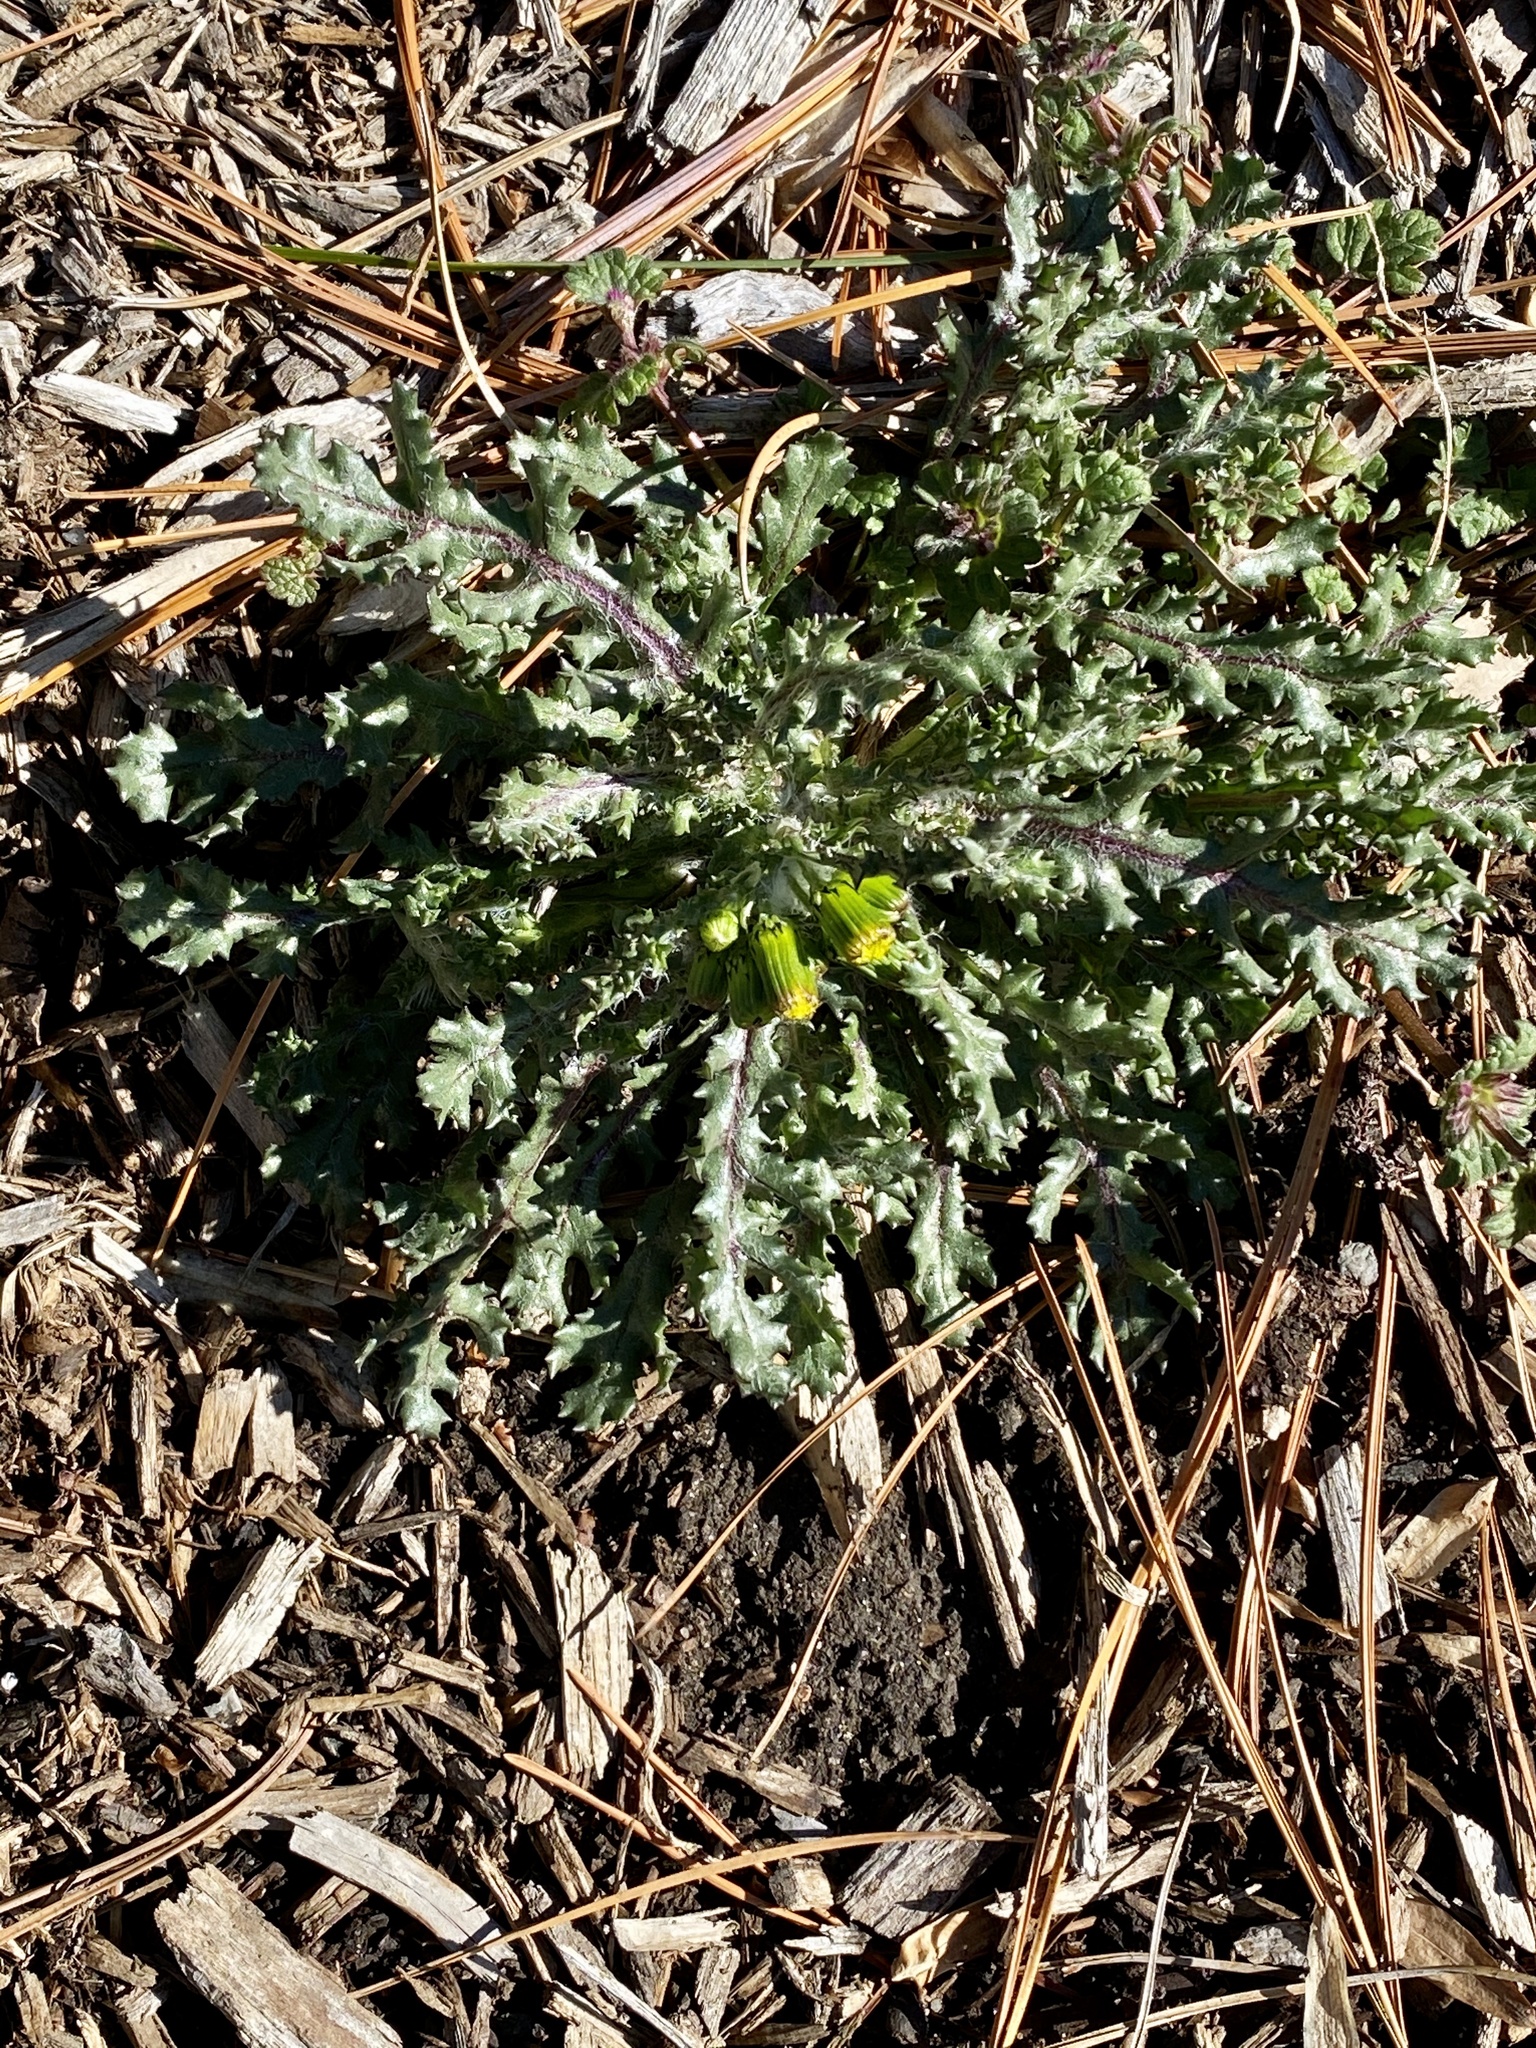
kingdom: Plantae
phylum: Tracheophyta
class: Magnoliopsida
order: Asterales
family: Asteraceae
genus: Senecio
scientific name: Senecio vulgaris
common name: Old-man-in-the-spring
